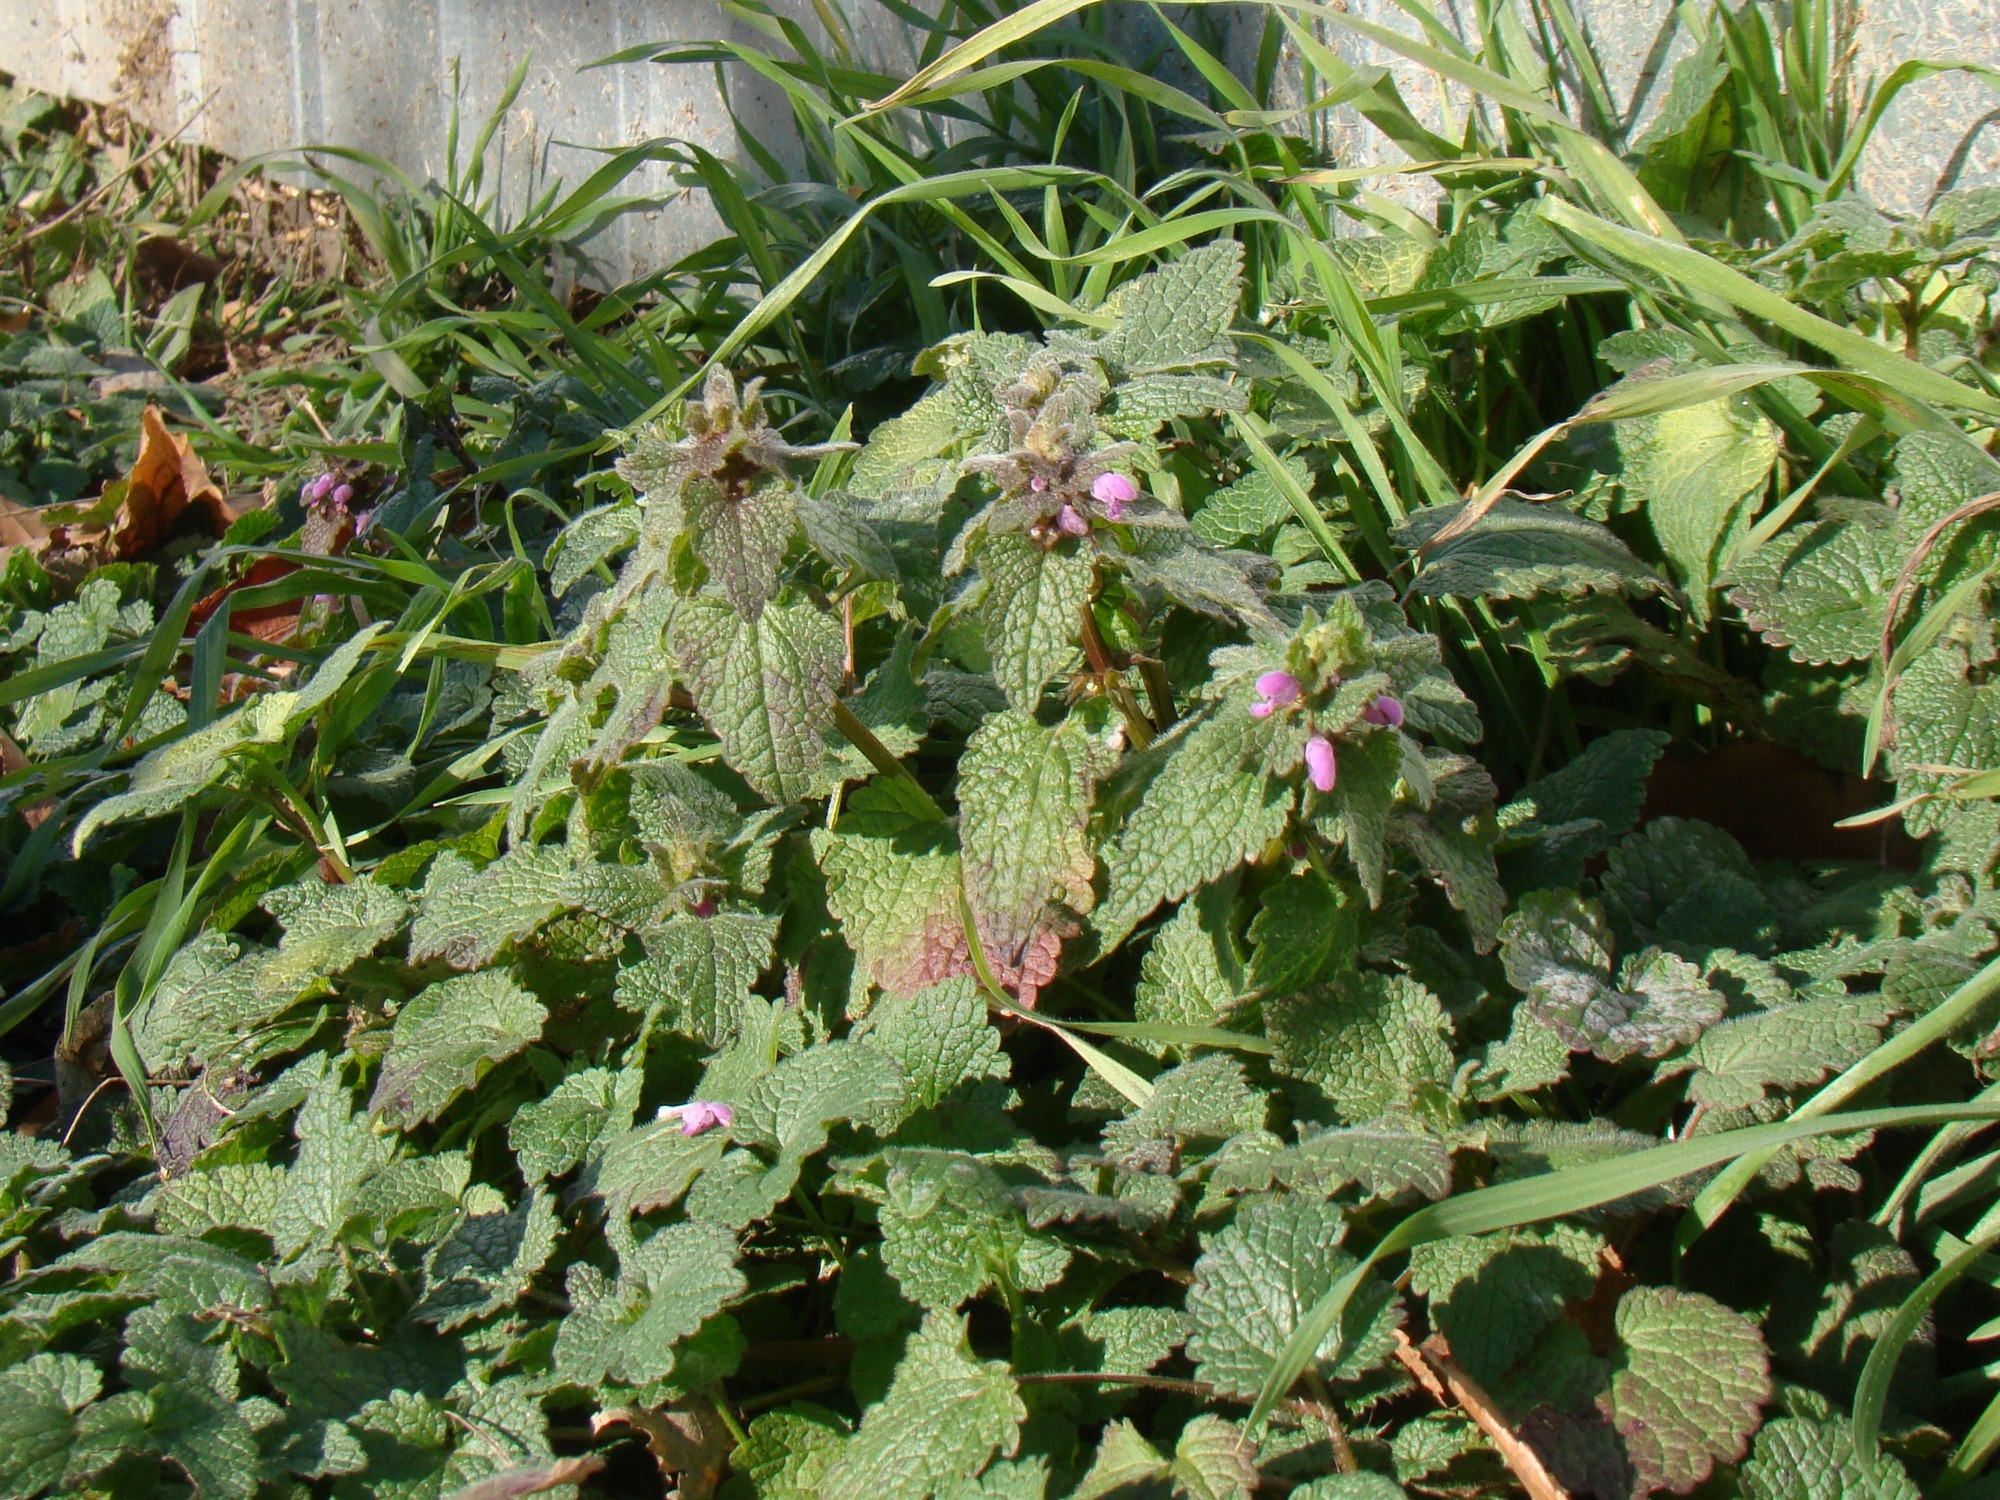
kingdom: Plantae
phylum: Tracheophyta
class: Magnoliopsida
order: Lamiales
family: Lamiaceae
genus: Lamium
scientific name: Lamium purpureum
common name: Red dead-nettle
